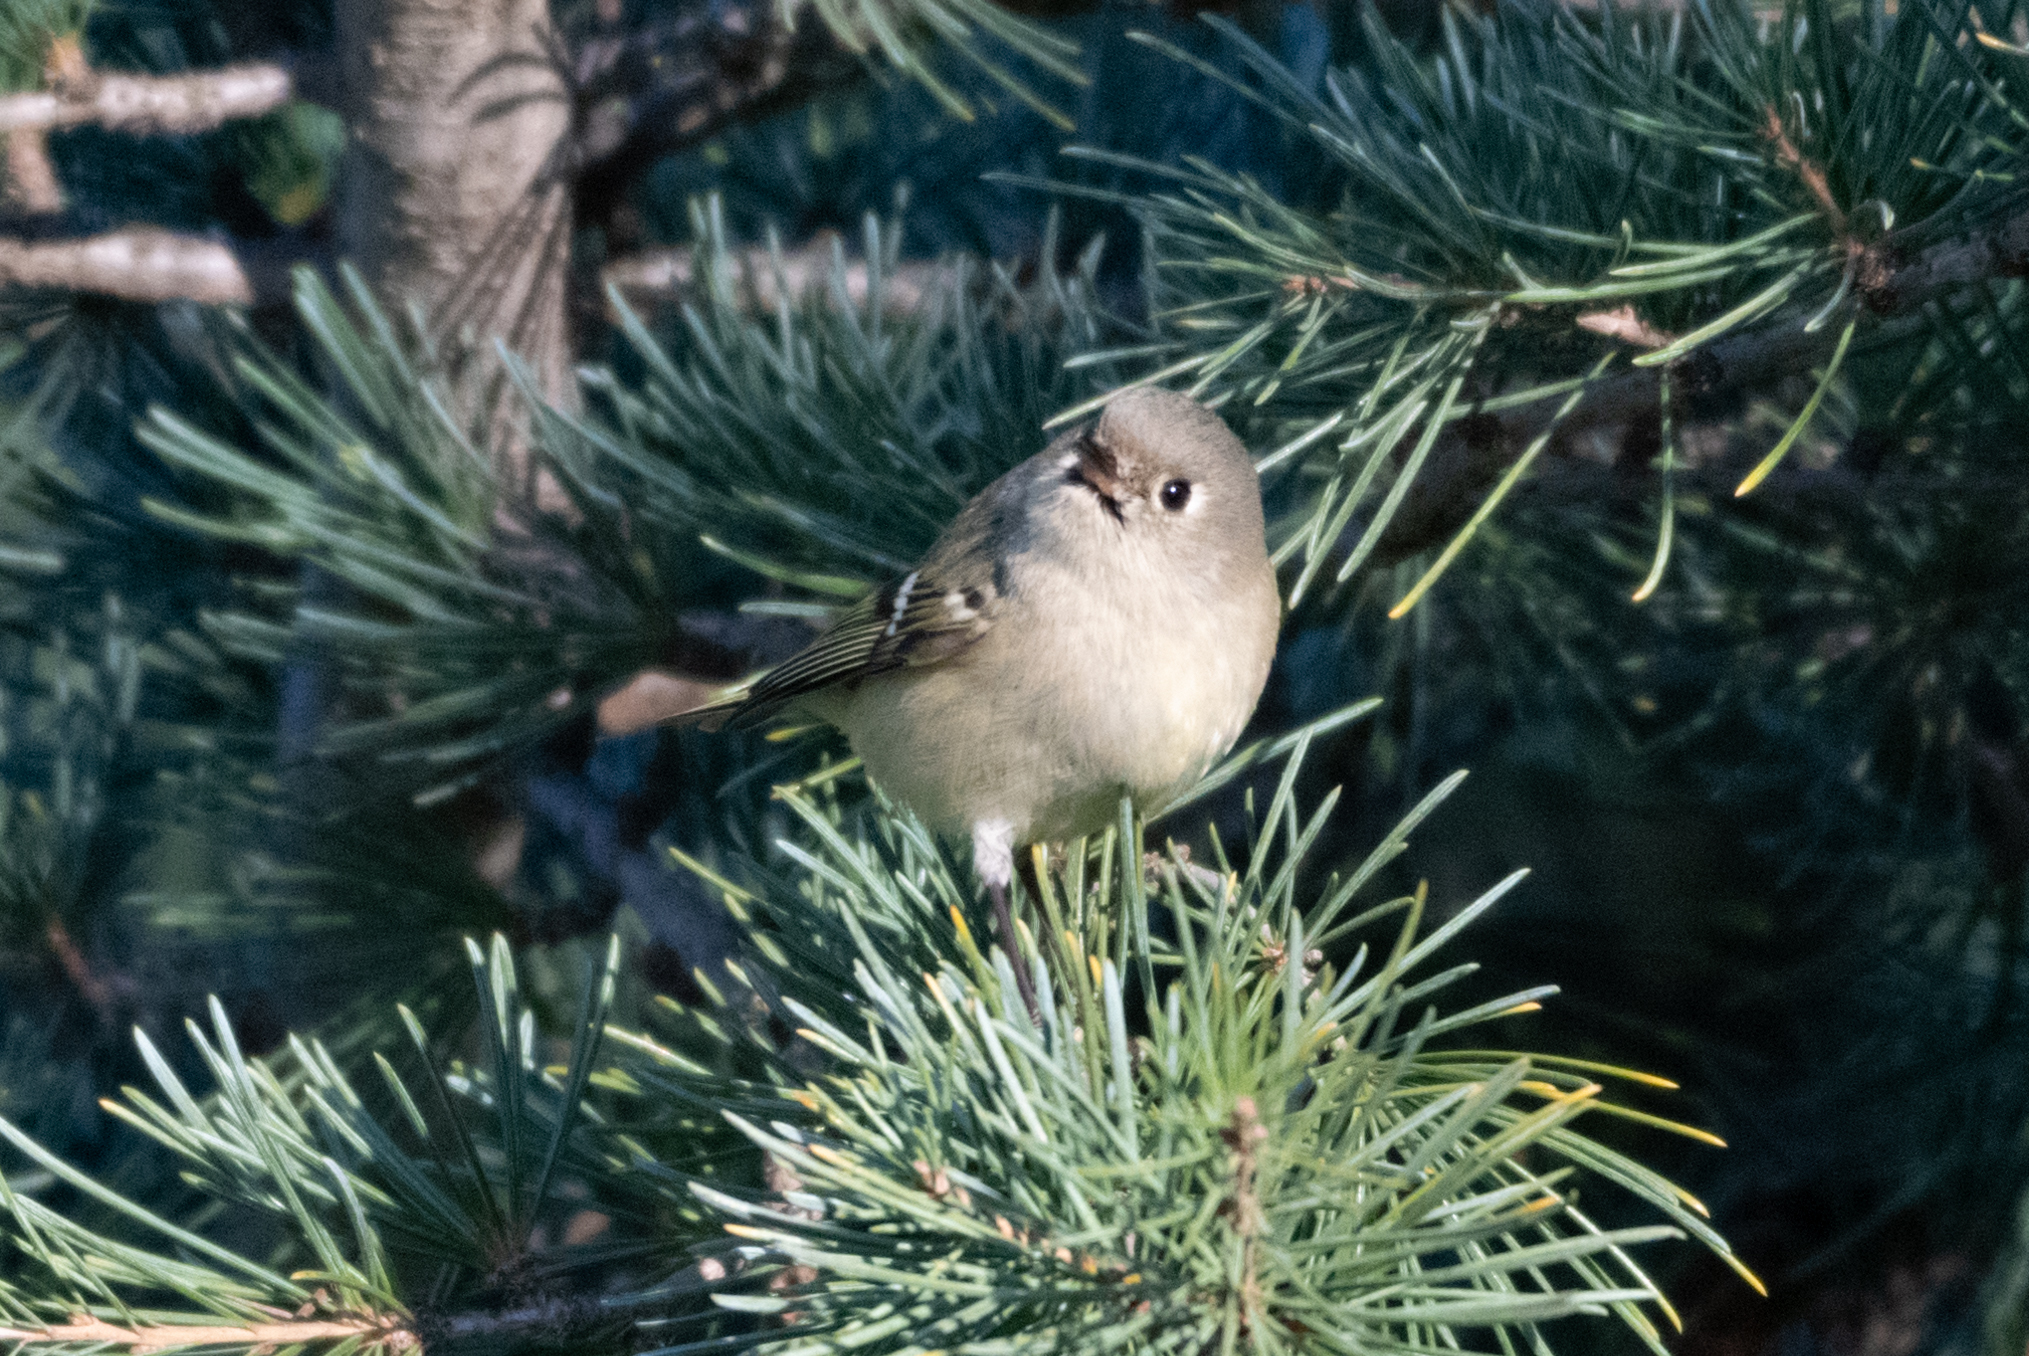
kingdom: Animalia
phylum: Chordata
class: Aves
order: Passeriformes
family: Regulidae
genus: Regulus
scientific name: Regulus calendula
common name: Ruby-crowned kinglet
